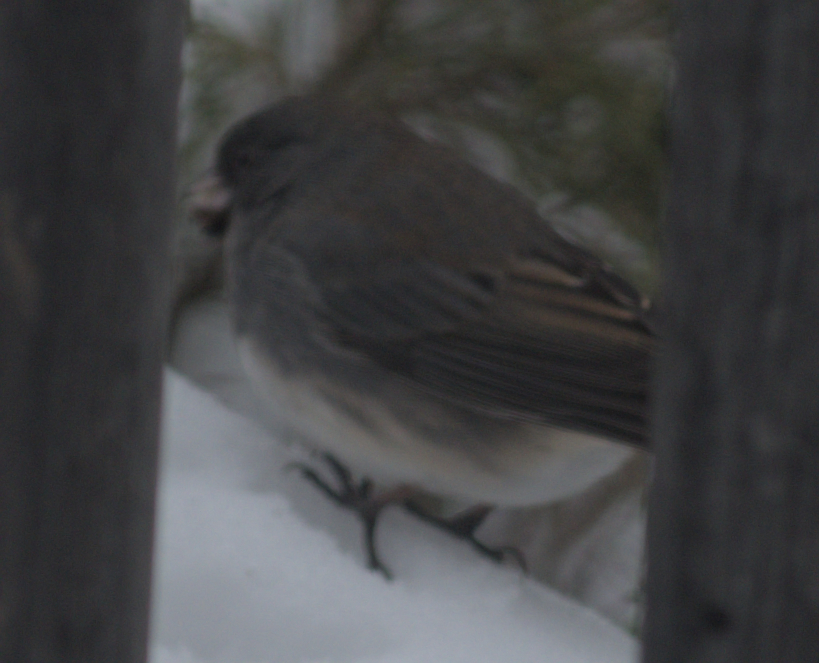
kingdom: Animalia
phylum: Chordata
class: Aves
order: Passeriformes
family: Passerellidae
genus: Junco
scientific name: Junco hyemalis
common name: Dark-eyed junco
